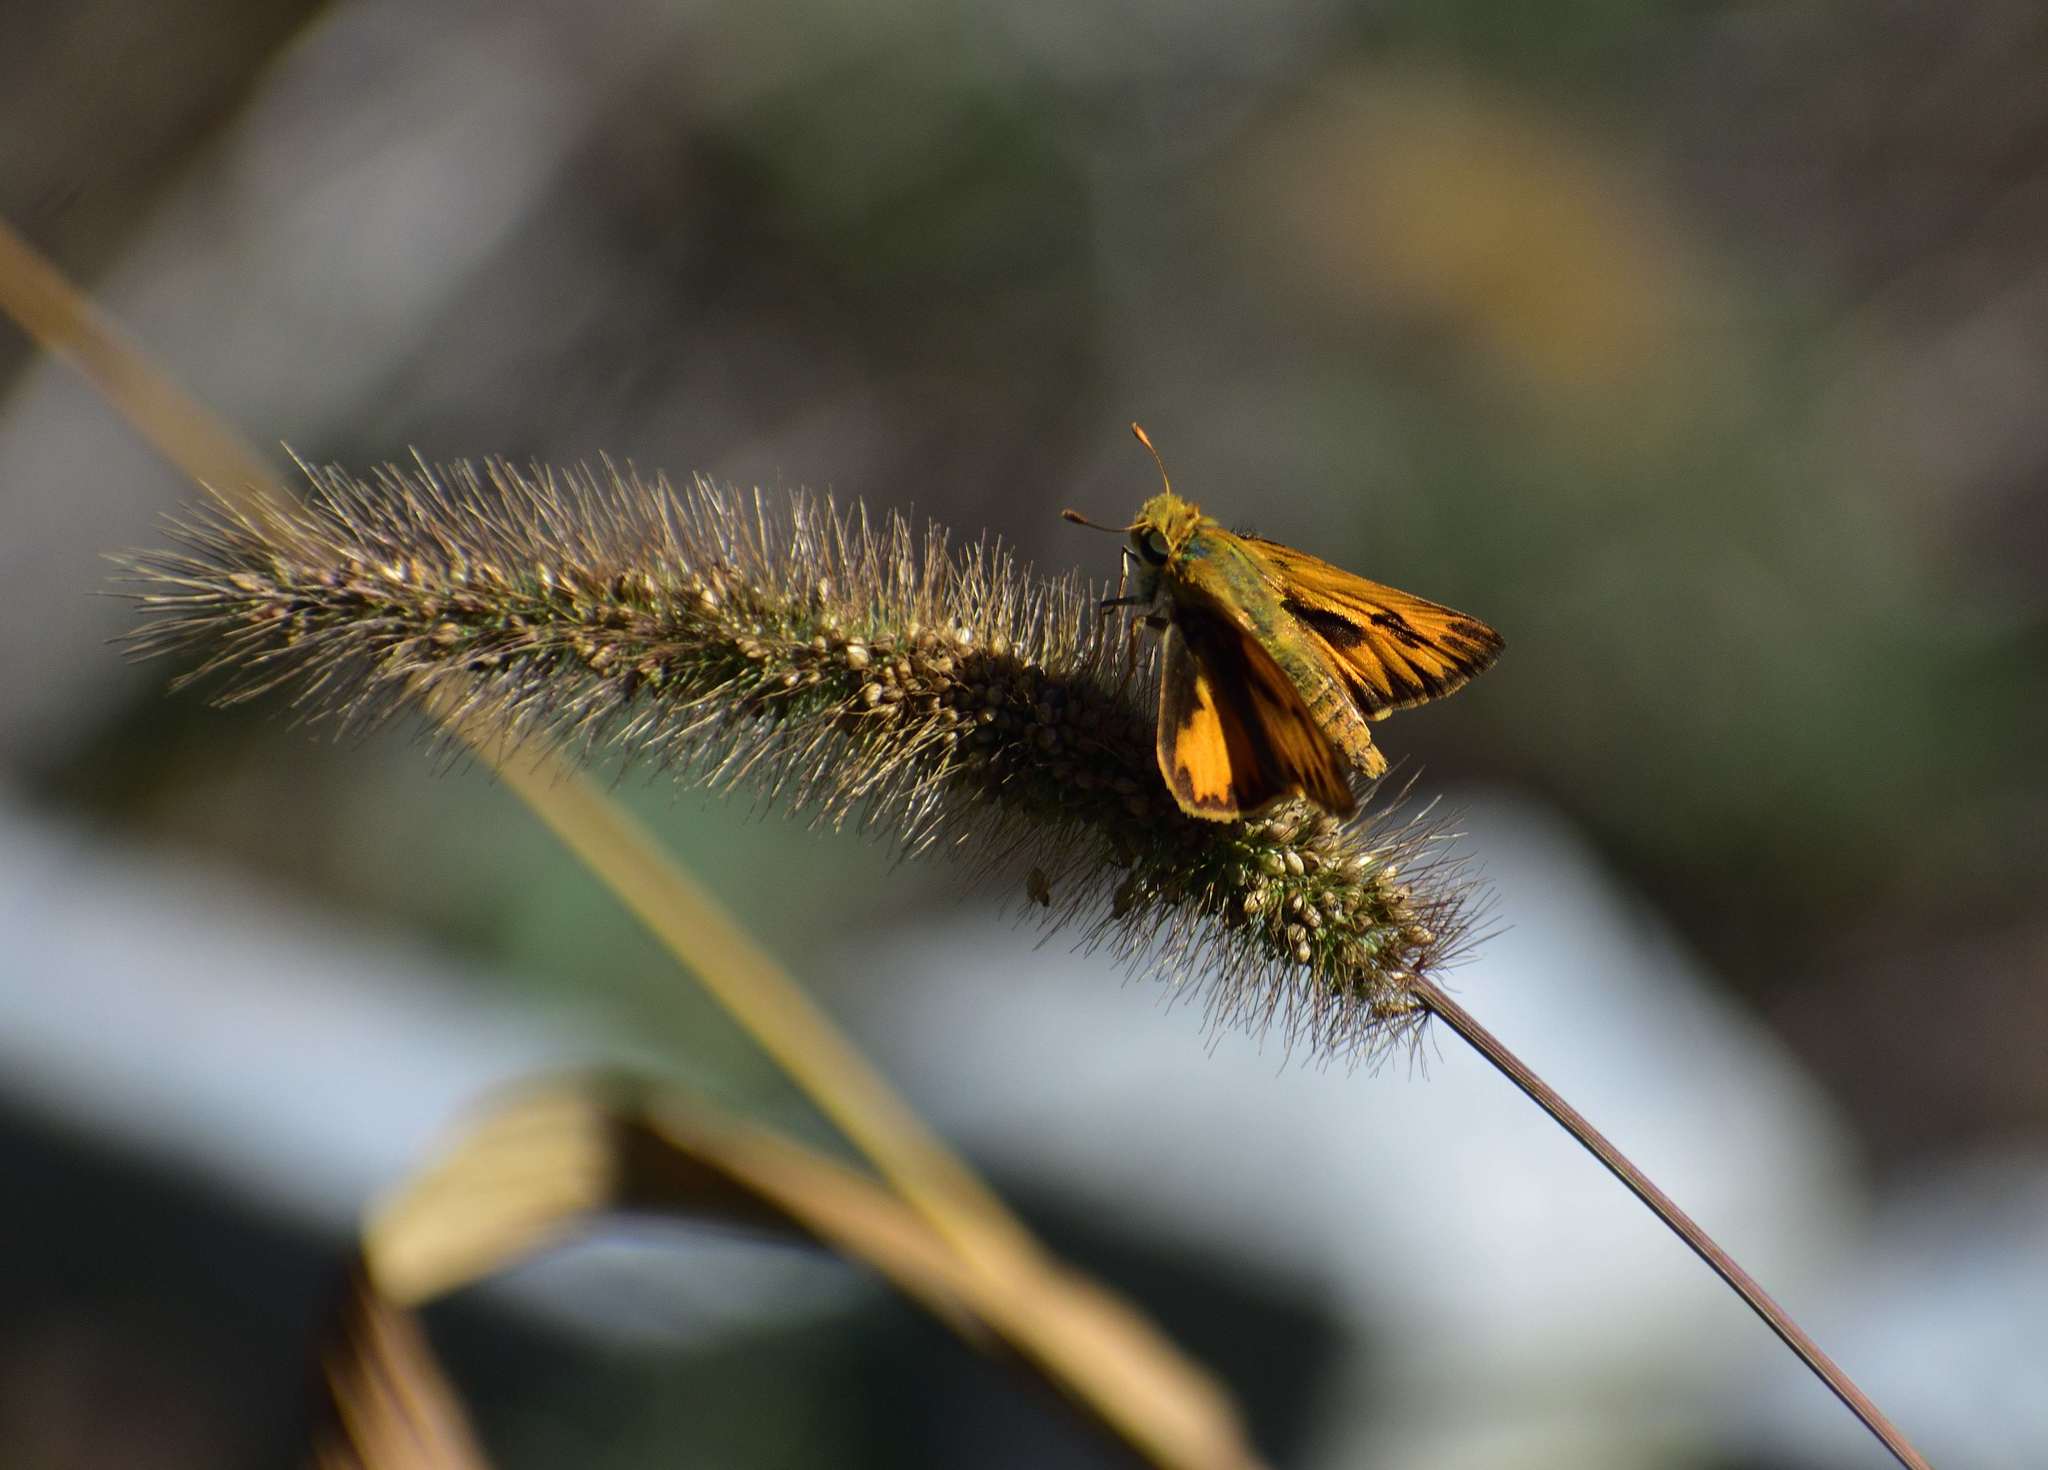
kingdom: Animalia
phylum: Arthropoda
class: Insecta
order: Lepidoptera
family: Hesperiidae
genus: Hylephila
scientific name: Hylephila phyleus
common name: Fiery skipper
